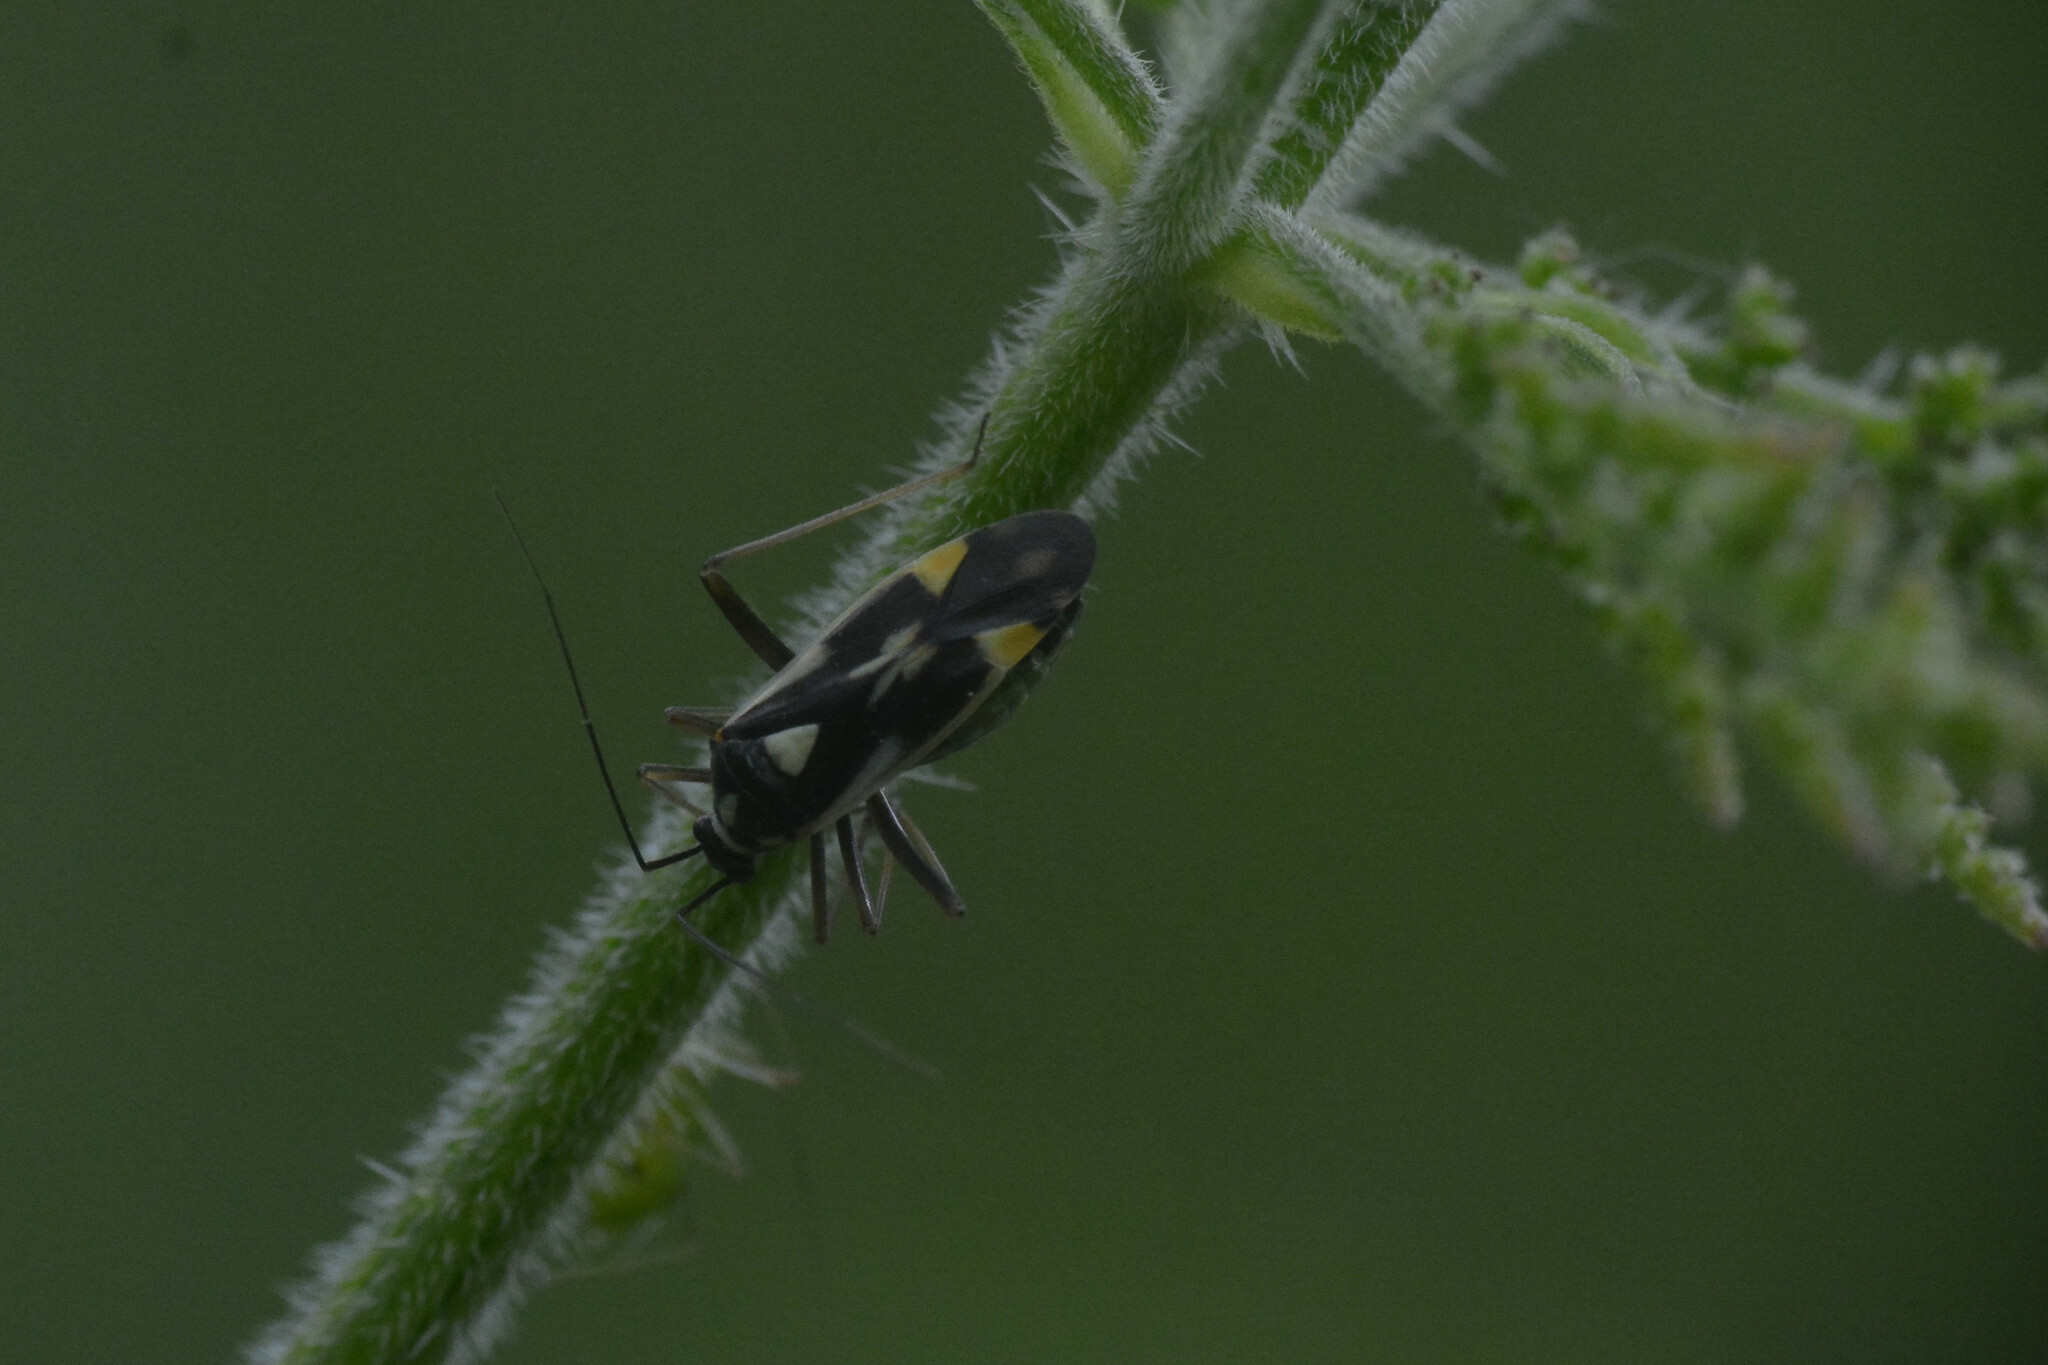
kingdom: Animalia
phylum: Arthropoda
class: Insecta
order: Hemiptera
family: Miridae
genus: Grypocoris
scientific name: Grypocoris stysi
